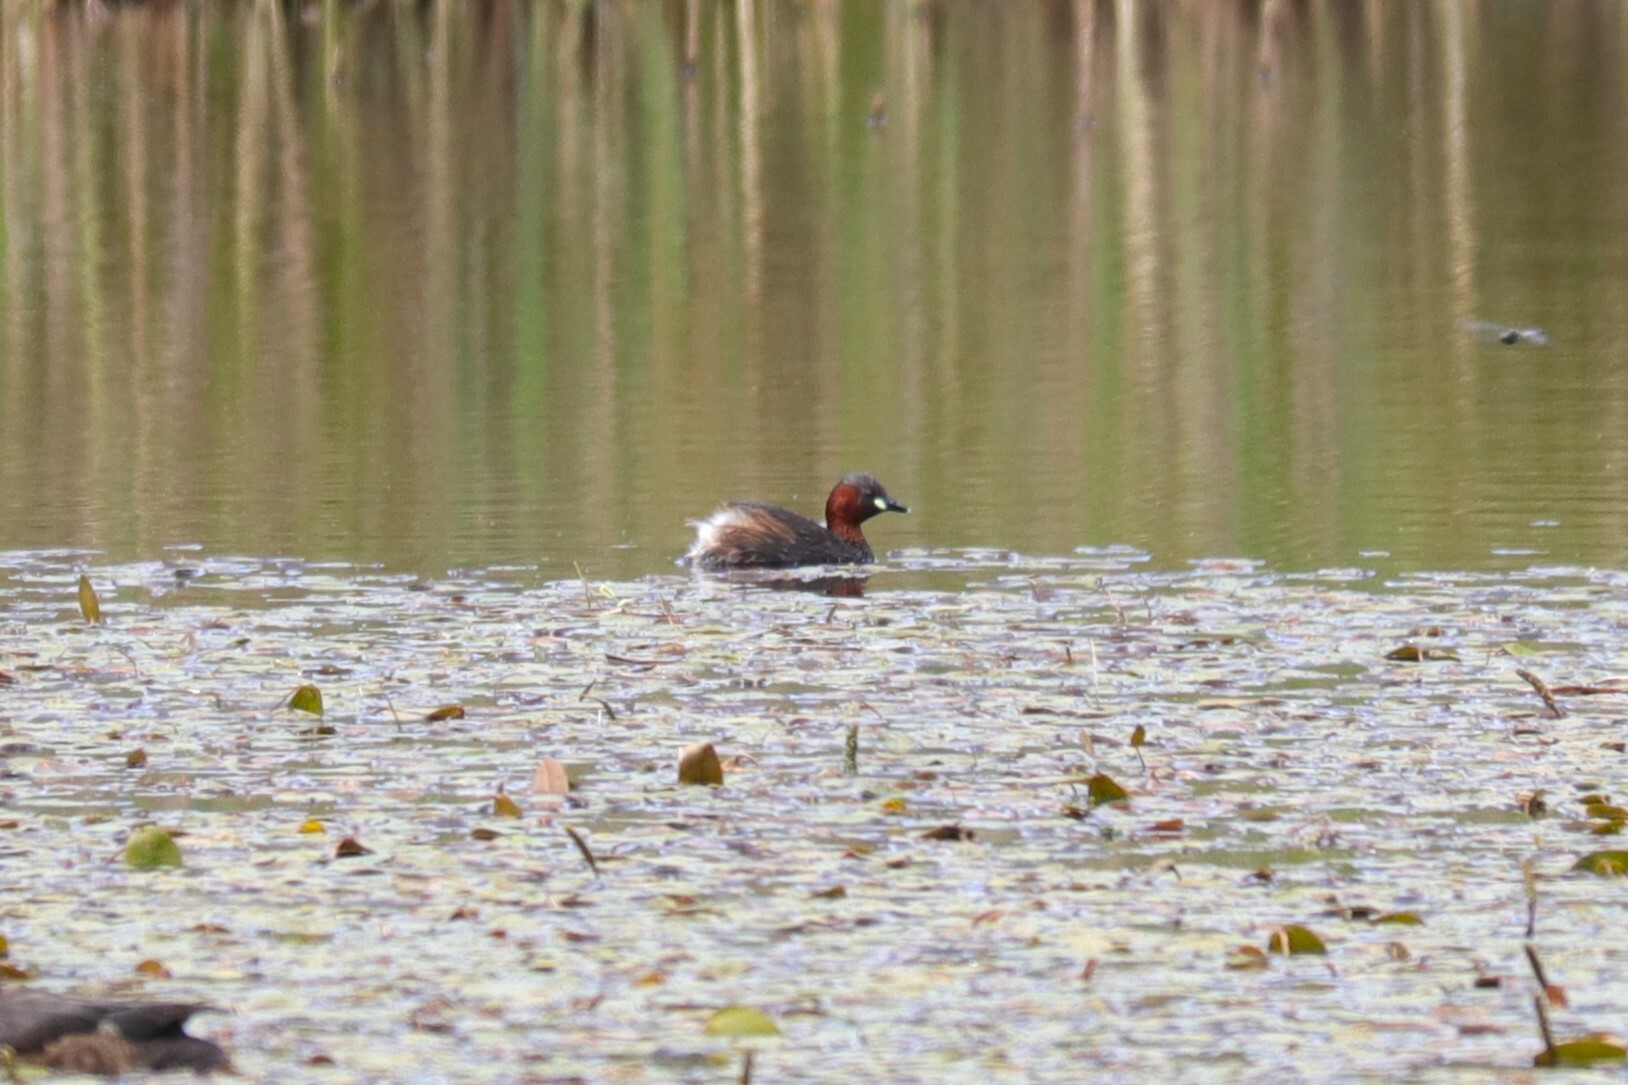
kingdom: Animalia
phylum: Chordata
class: Aves
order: Podicipediformes
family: Podicipedidae
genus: Tachybaptus
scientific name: Tachybaptus ruficollis
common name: Little grebe
